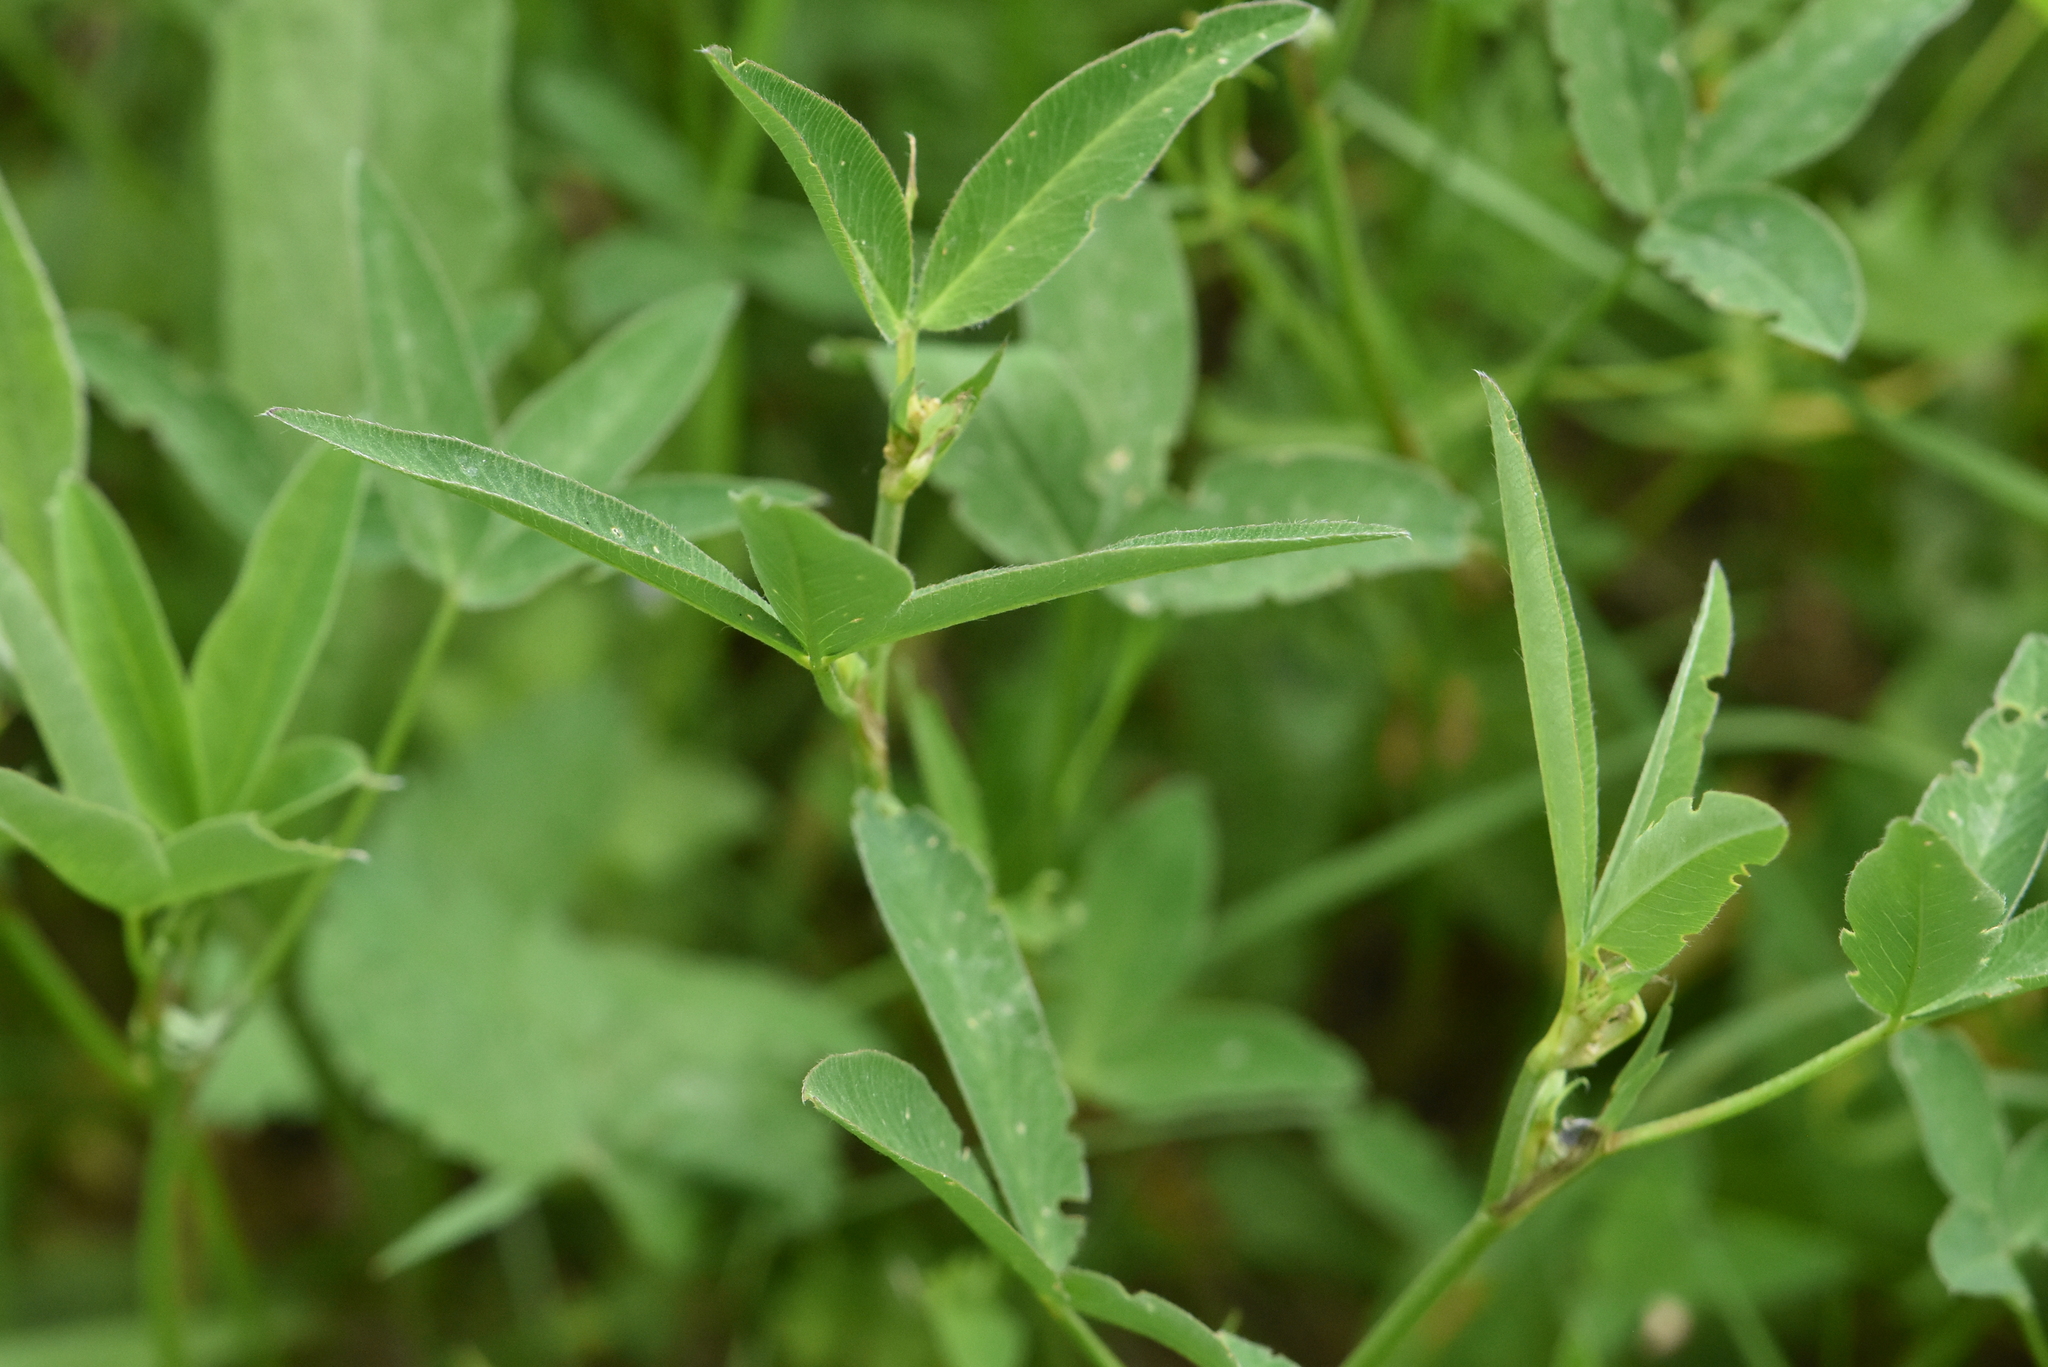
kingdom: Plantae
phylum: Tracheophyta
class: Magnoliopsida
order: Fabales
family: Fabaceae
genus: Trifolium
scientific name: Trifolium medium
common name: Zigzag clover
